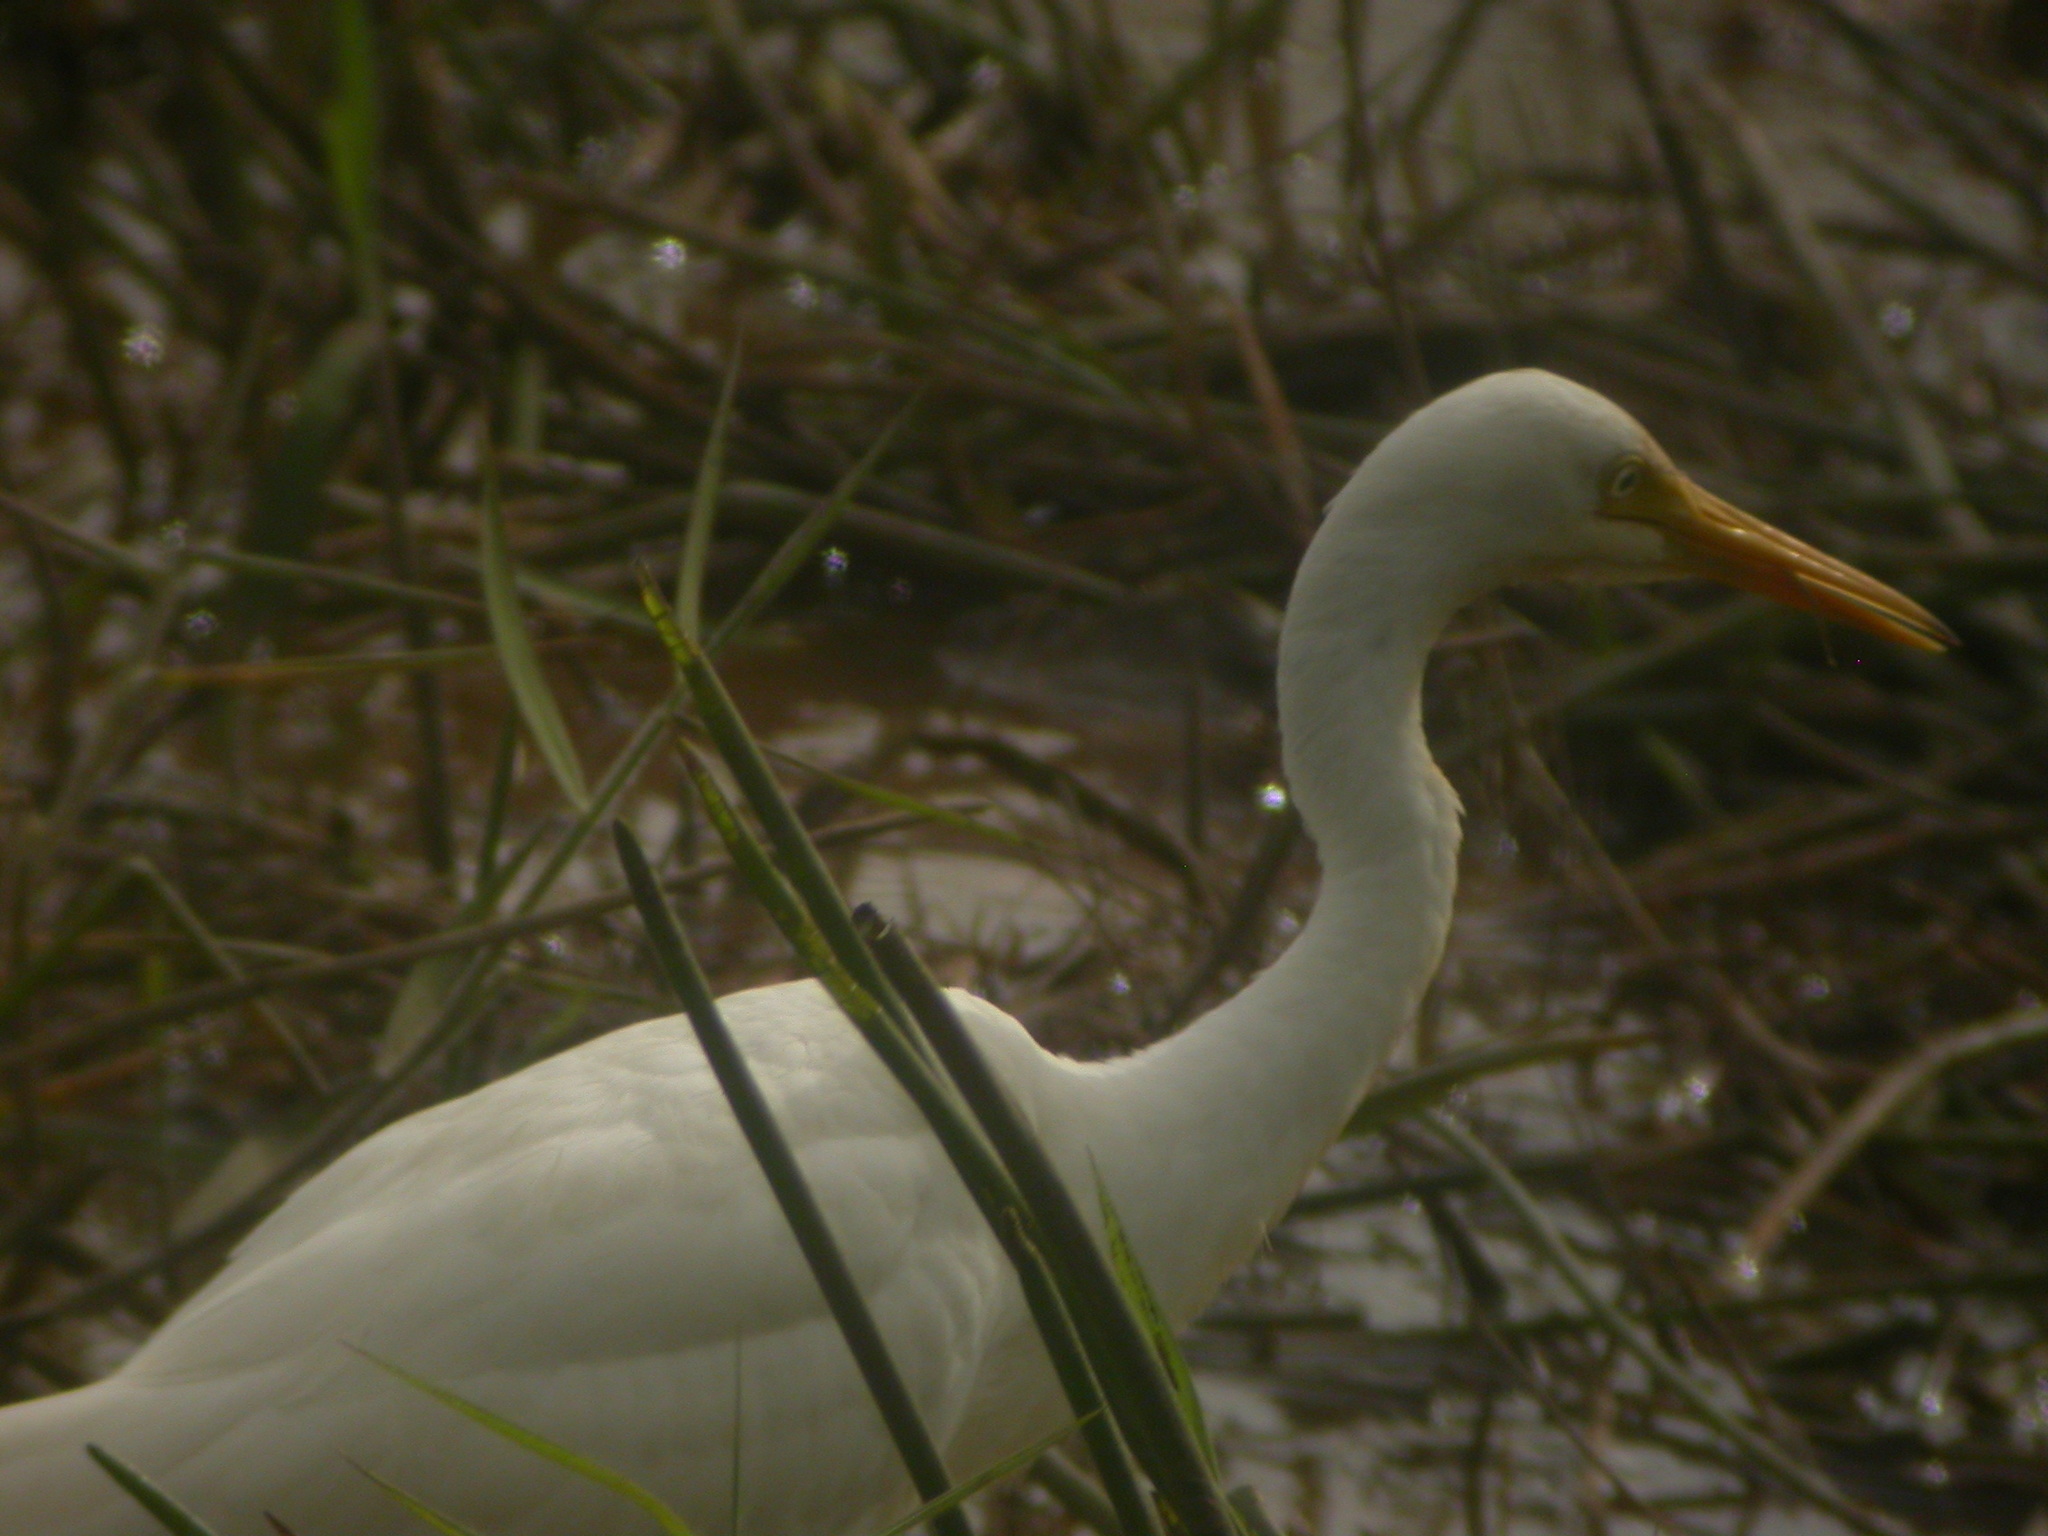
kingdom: Animalia
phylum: Chordata
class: Aves
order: Pelecaniformes
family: Ardeidae
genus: Egretta
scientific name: Egretta intermedia
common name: Intermediate egret
